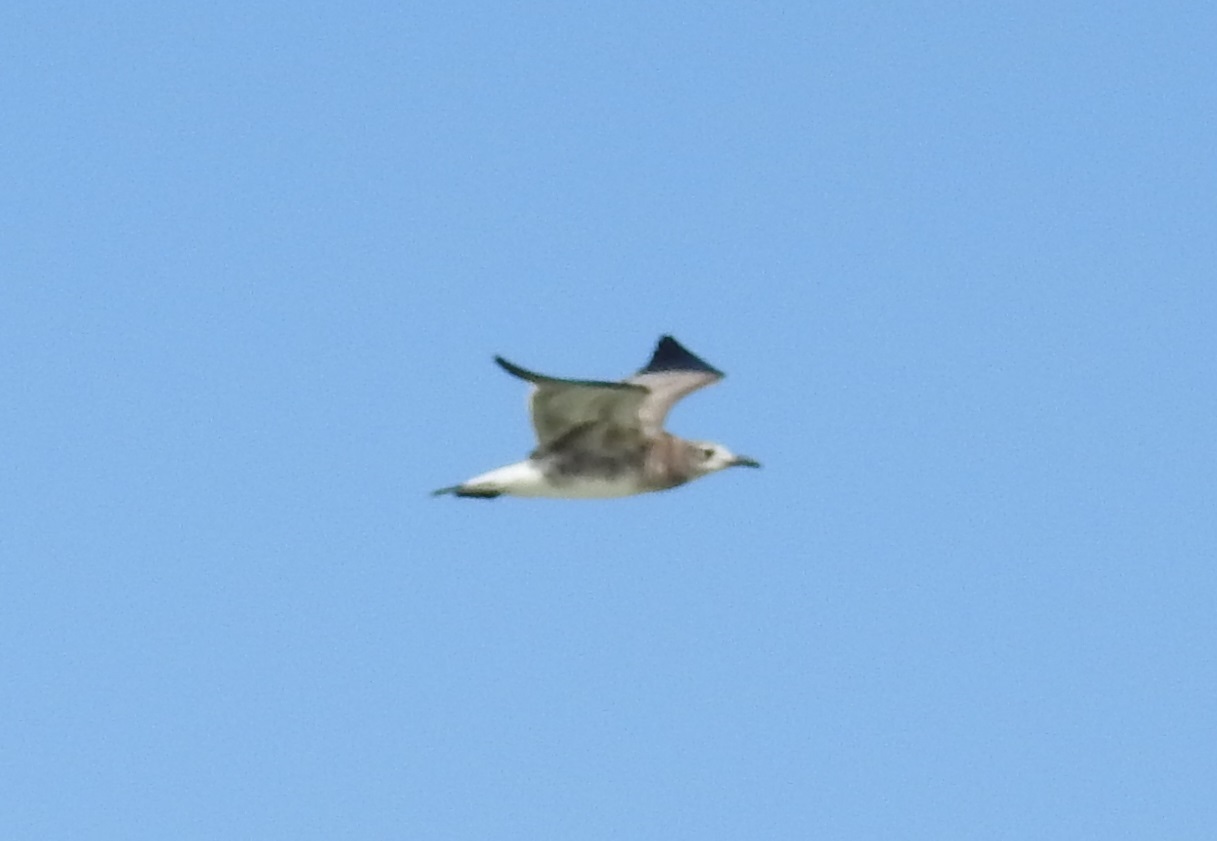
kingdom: Animalia
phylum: Chordata
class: Aves
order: Charadriiformes
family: Laridae
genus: Leucophaeus
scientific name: Leucophaeus atricilla
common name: Laughing gull
